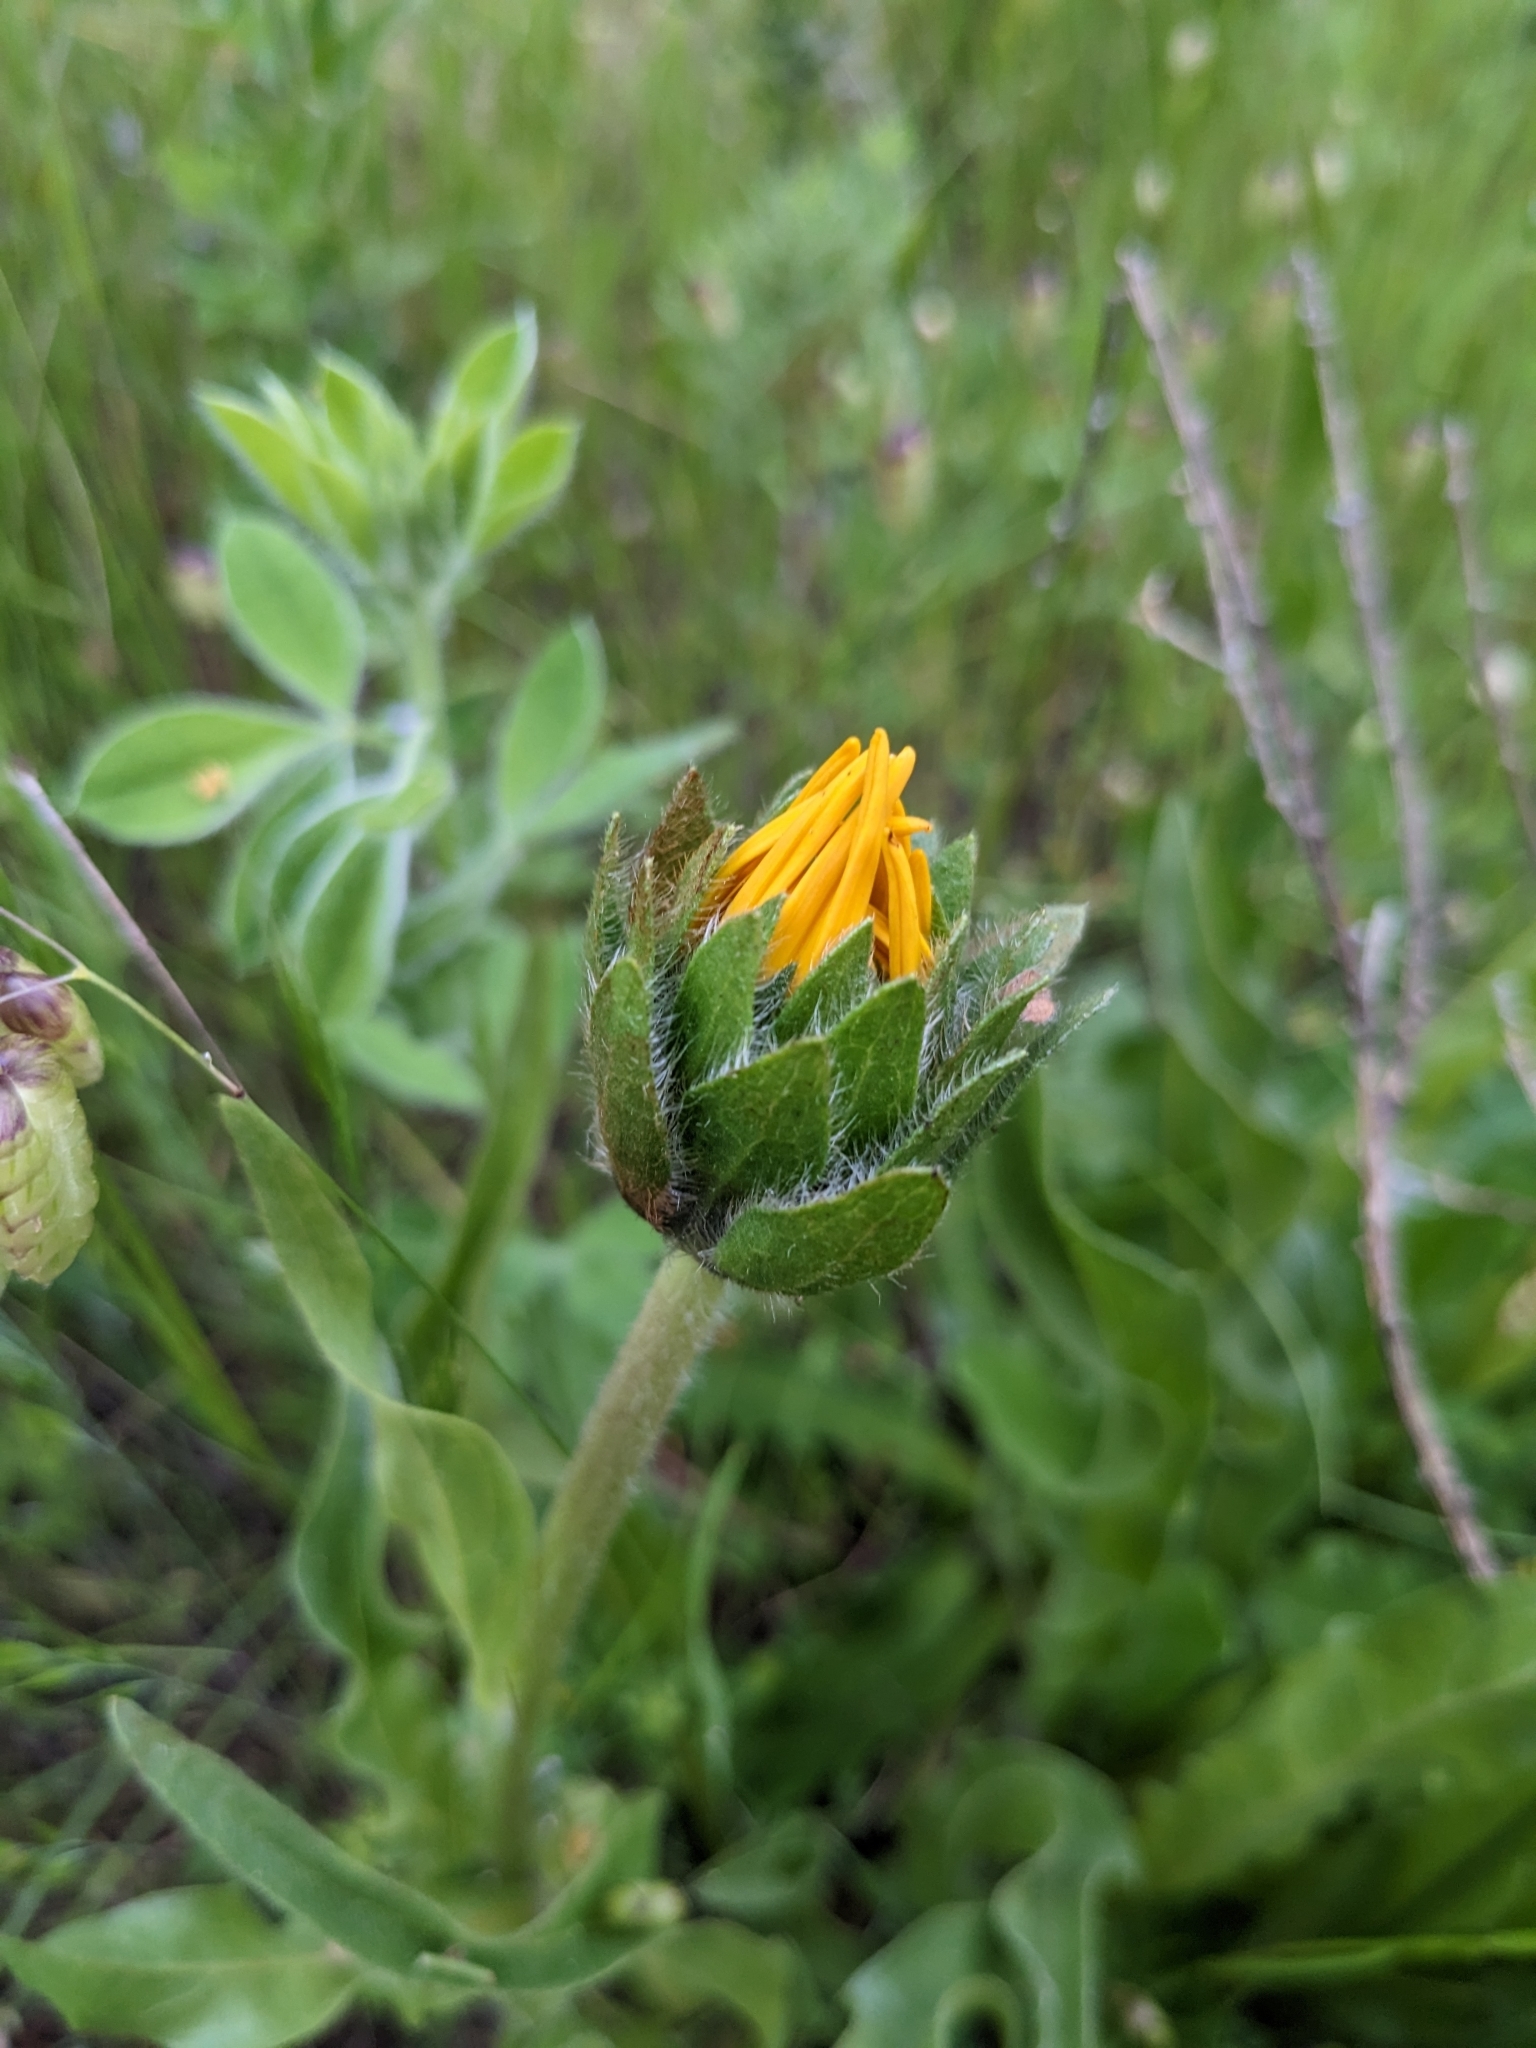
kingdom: Plantae
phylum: Tracheophyta
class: Magnoliopsida
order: Asterales
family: Asteraceae
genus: Wyethia
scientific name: Wyethia angustifolia
